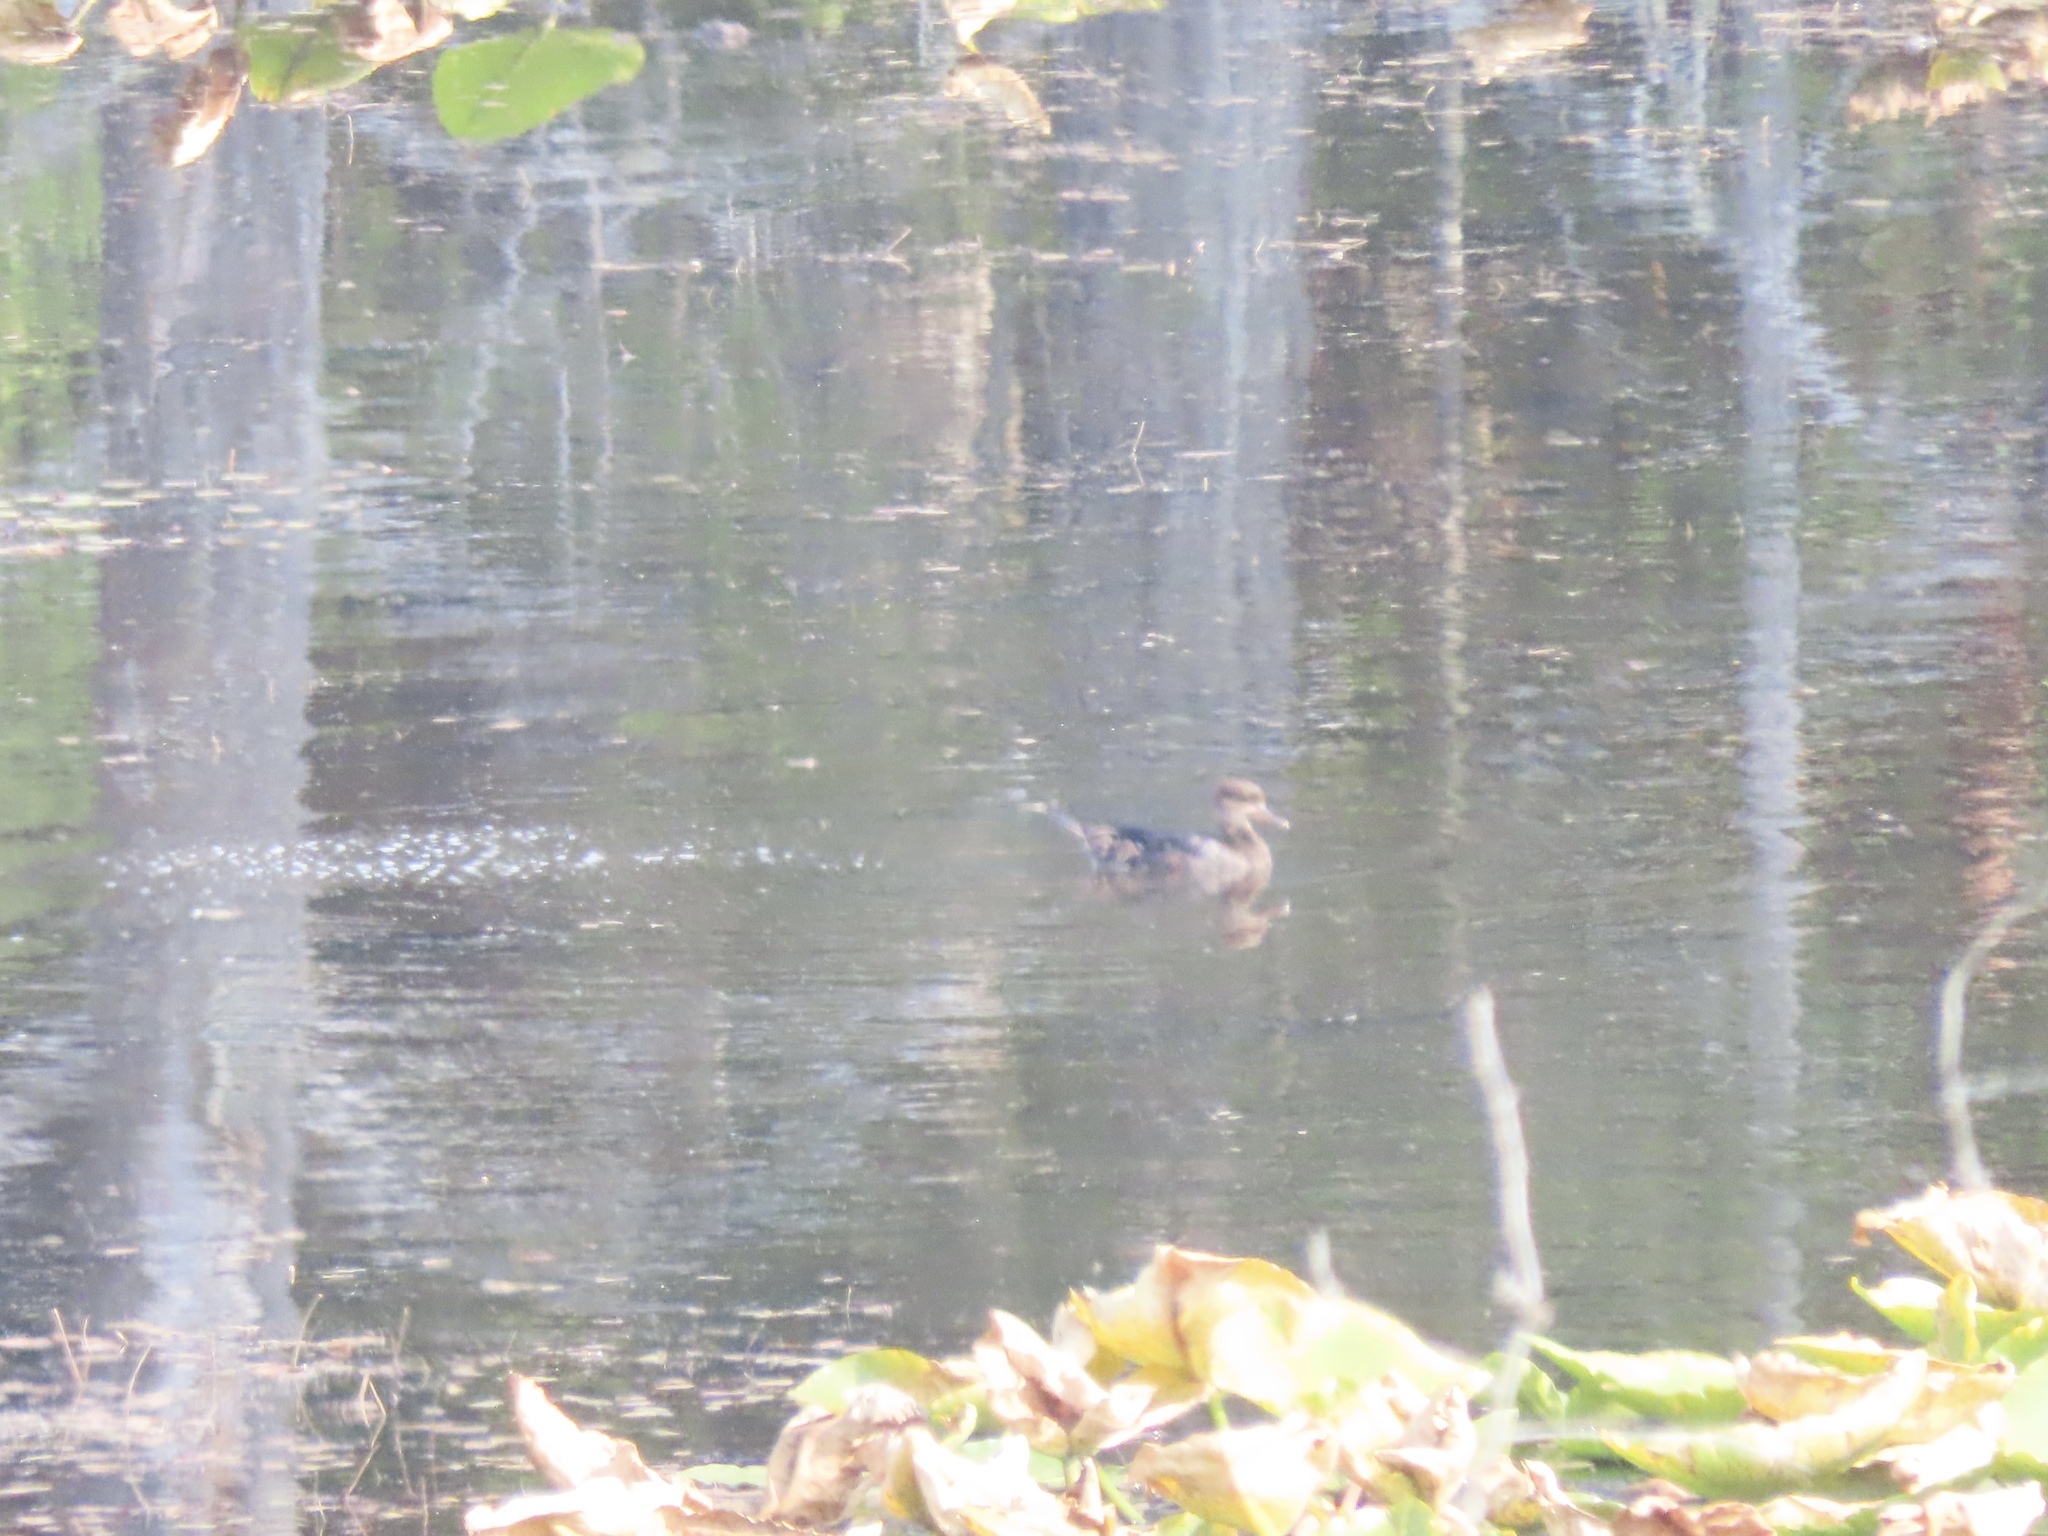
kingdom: Animalia
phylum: Chordata
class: Aves
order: Anseriformes
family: Anatidae
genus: Lophodytes
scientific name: Lophodytes cucullatus
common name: Hooded merganser
